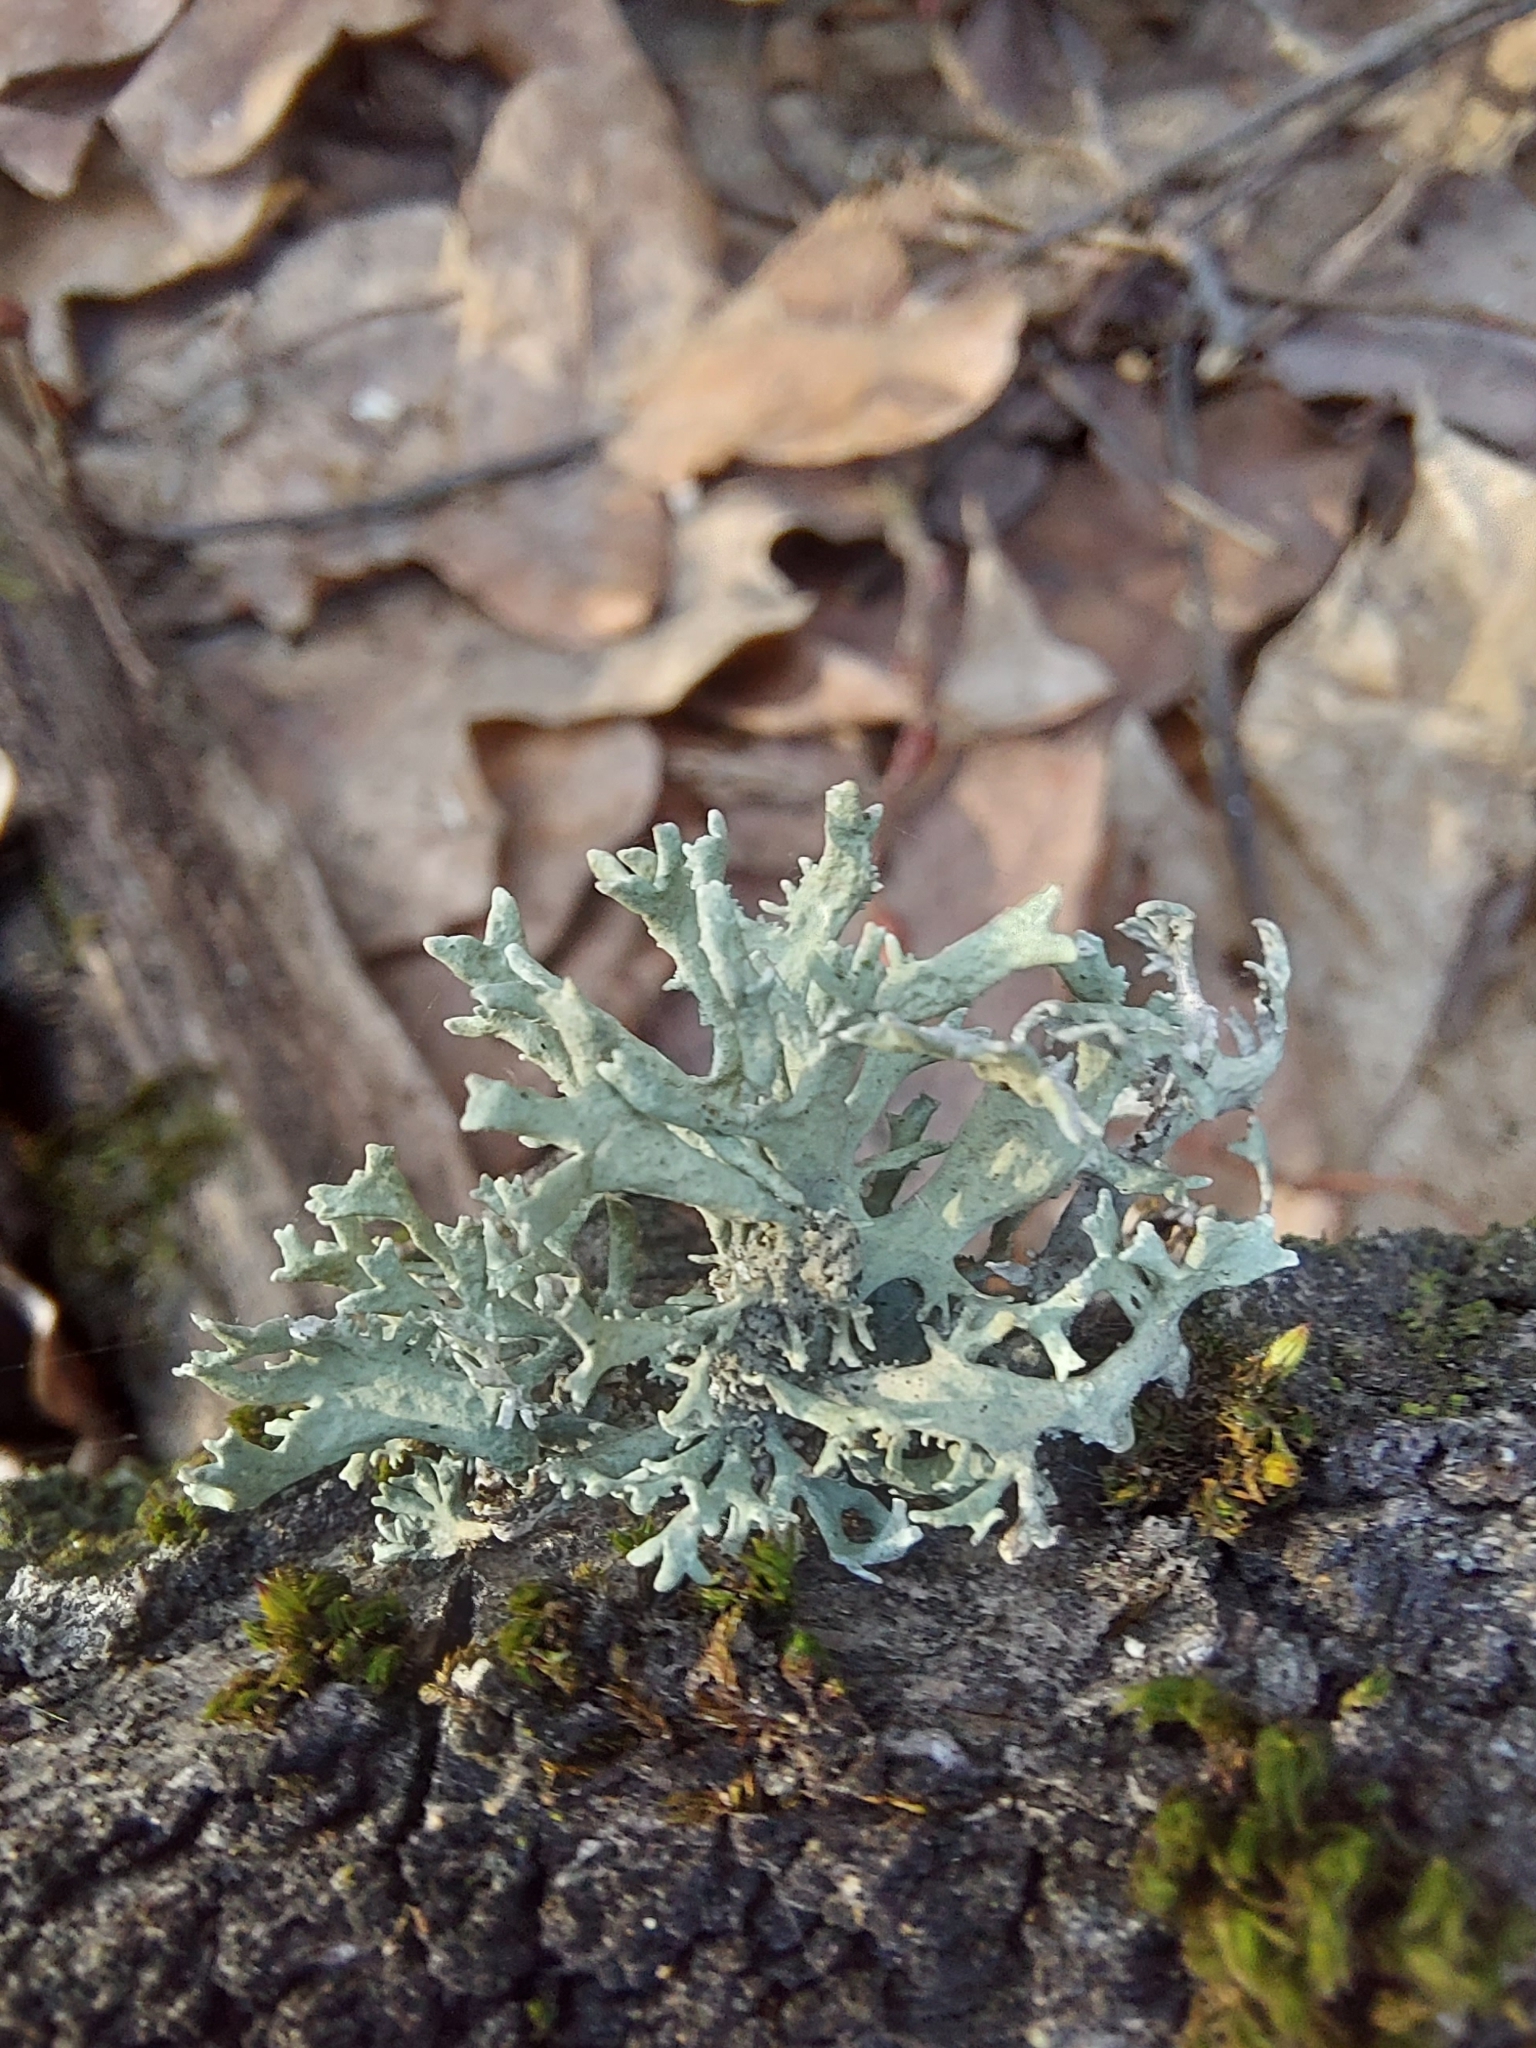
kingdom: Fungi
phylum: Ascomycota
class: Lecanoromycetes
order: Lecanorales
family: Parmeliaceae
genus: Evernia
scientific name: Evernia prunastri
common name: Oak moss
